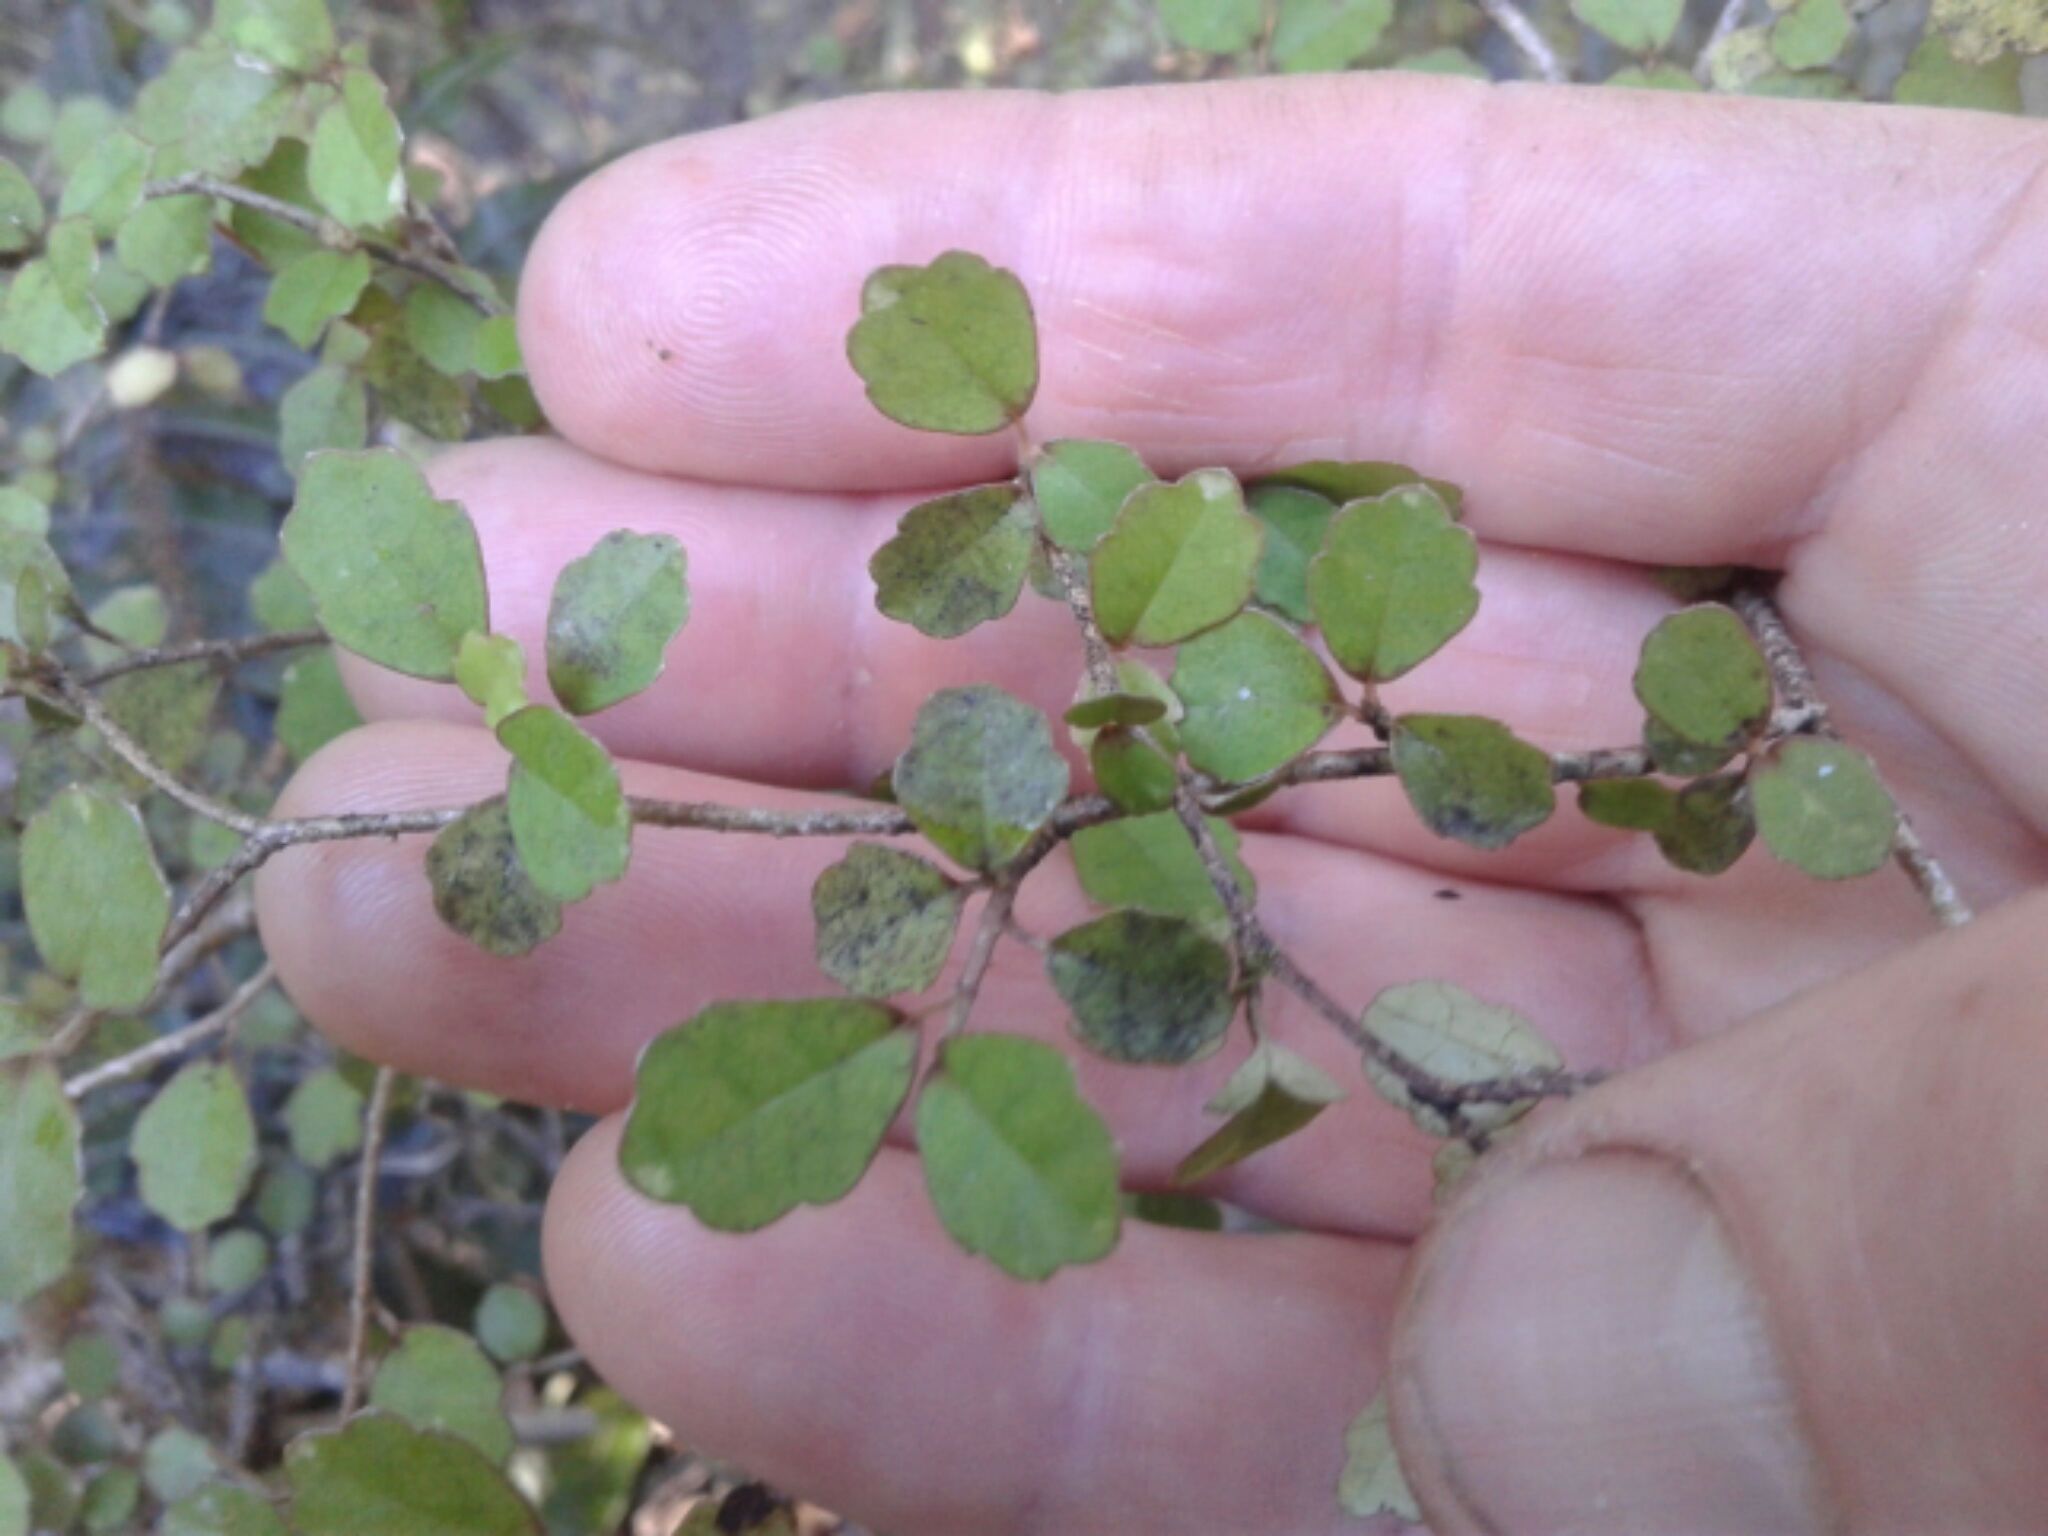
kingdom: Plantae
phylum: Tracheophyta
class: Magnoliopsida
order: Apiales
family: Pennantiaceae
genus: Pennantia
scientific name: Pennantia corymbosa
